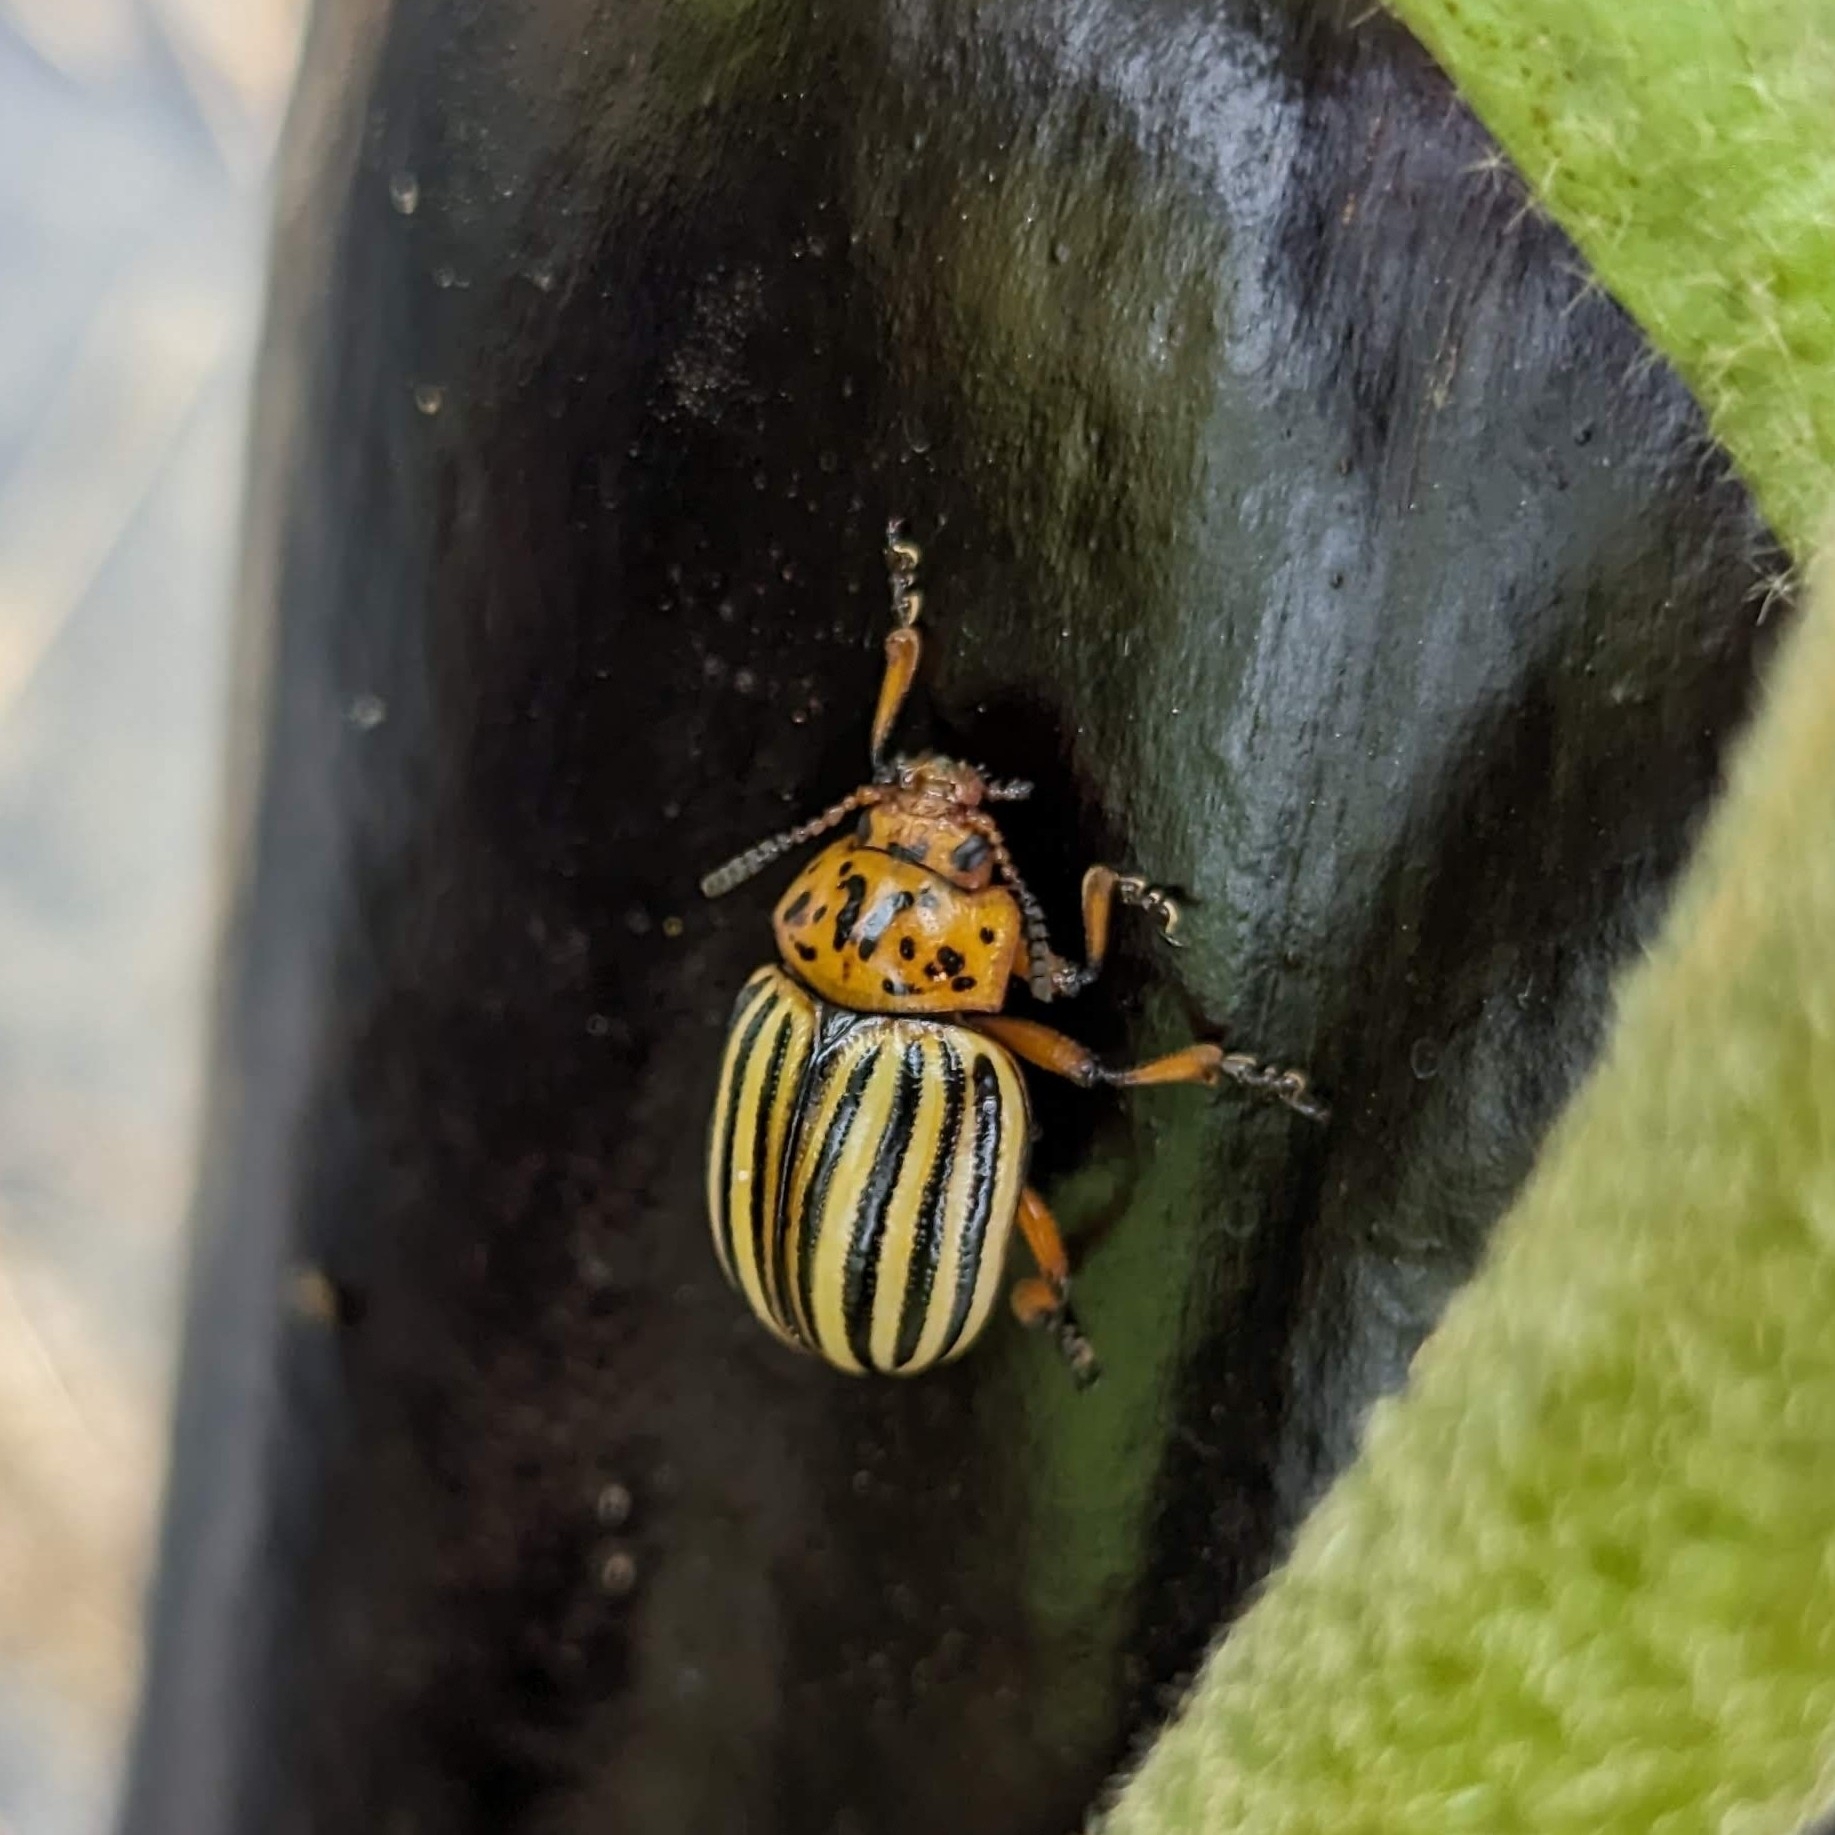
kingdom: Animalia
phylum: Arthropoda
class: Insecta
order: Coleoptera
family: Chrysomelidae
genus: Leptinotarsa
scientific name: Leptinotarsa decemlineata
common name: Colorado potato beetle
